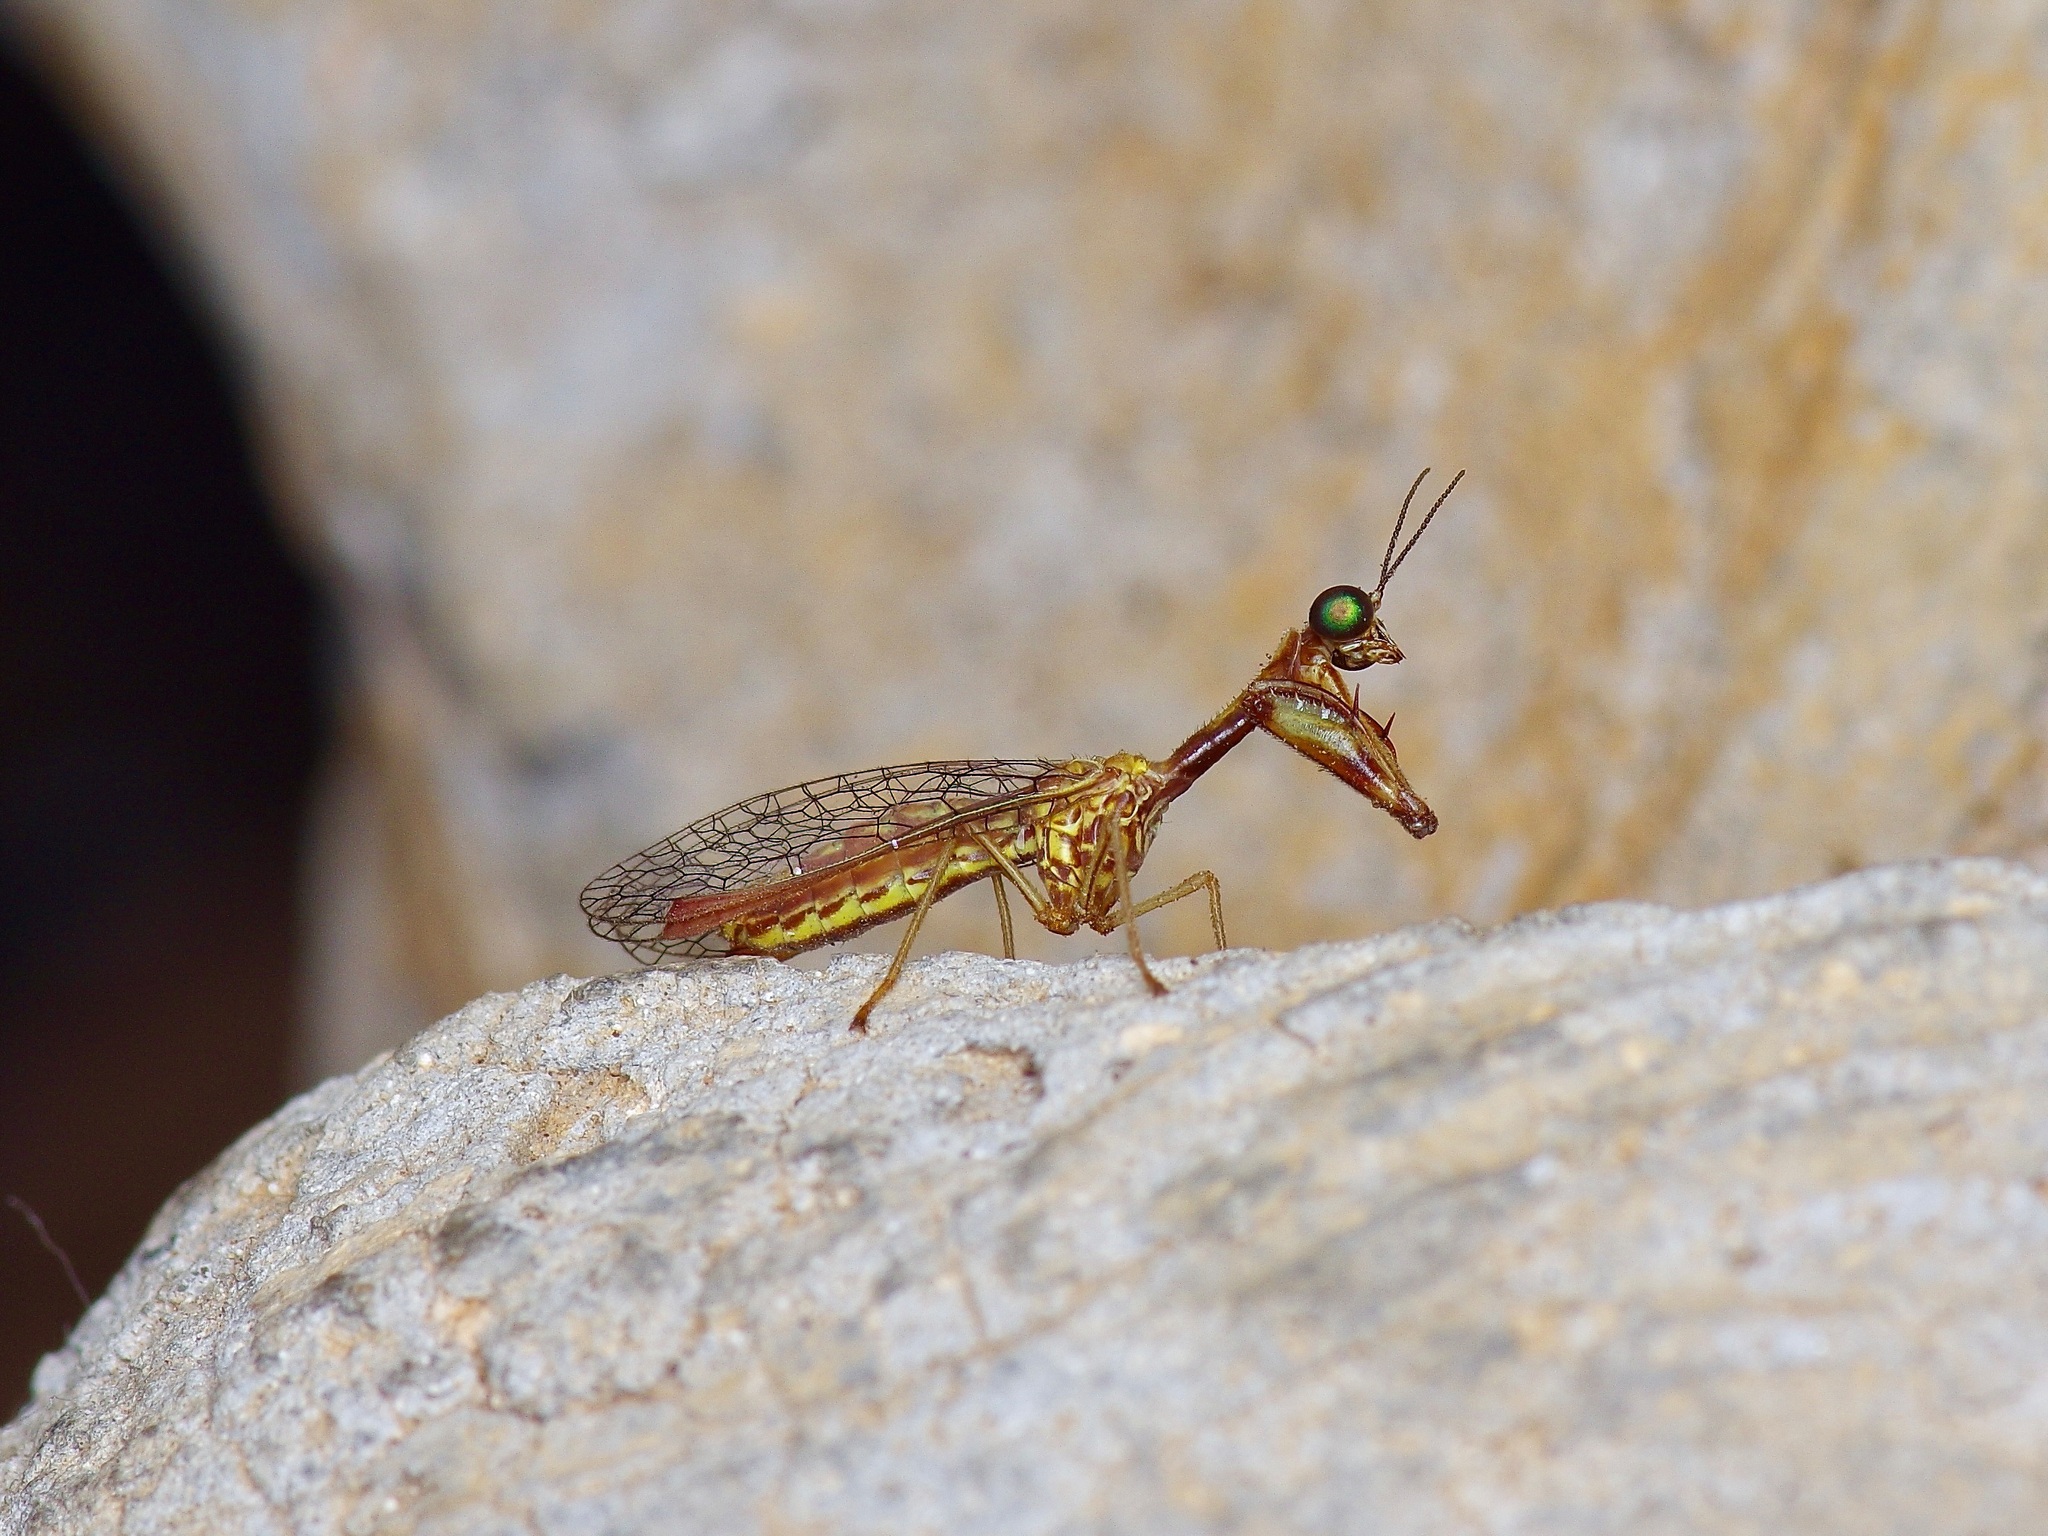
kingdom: Animalia
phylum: Arthropoda
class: Insecta
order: Neuroptera
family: Mantispidae
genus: Leptomantispa
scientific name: Leptomantispa pulchella
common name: Stevens's mantidfly
